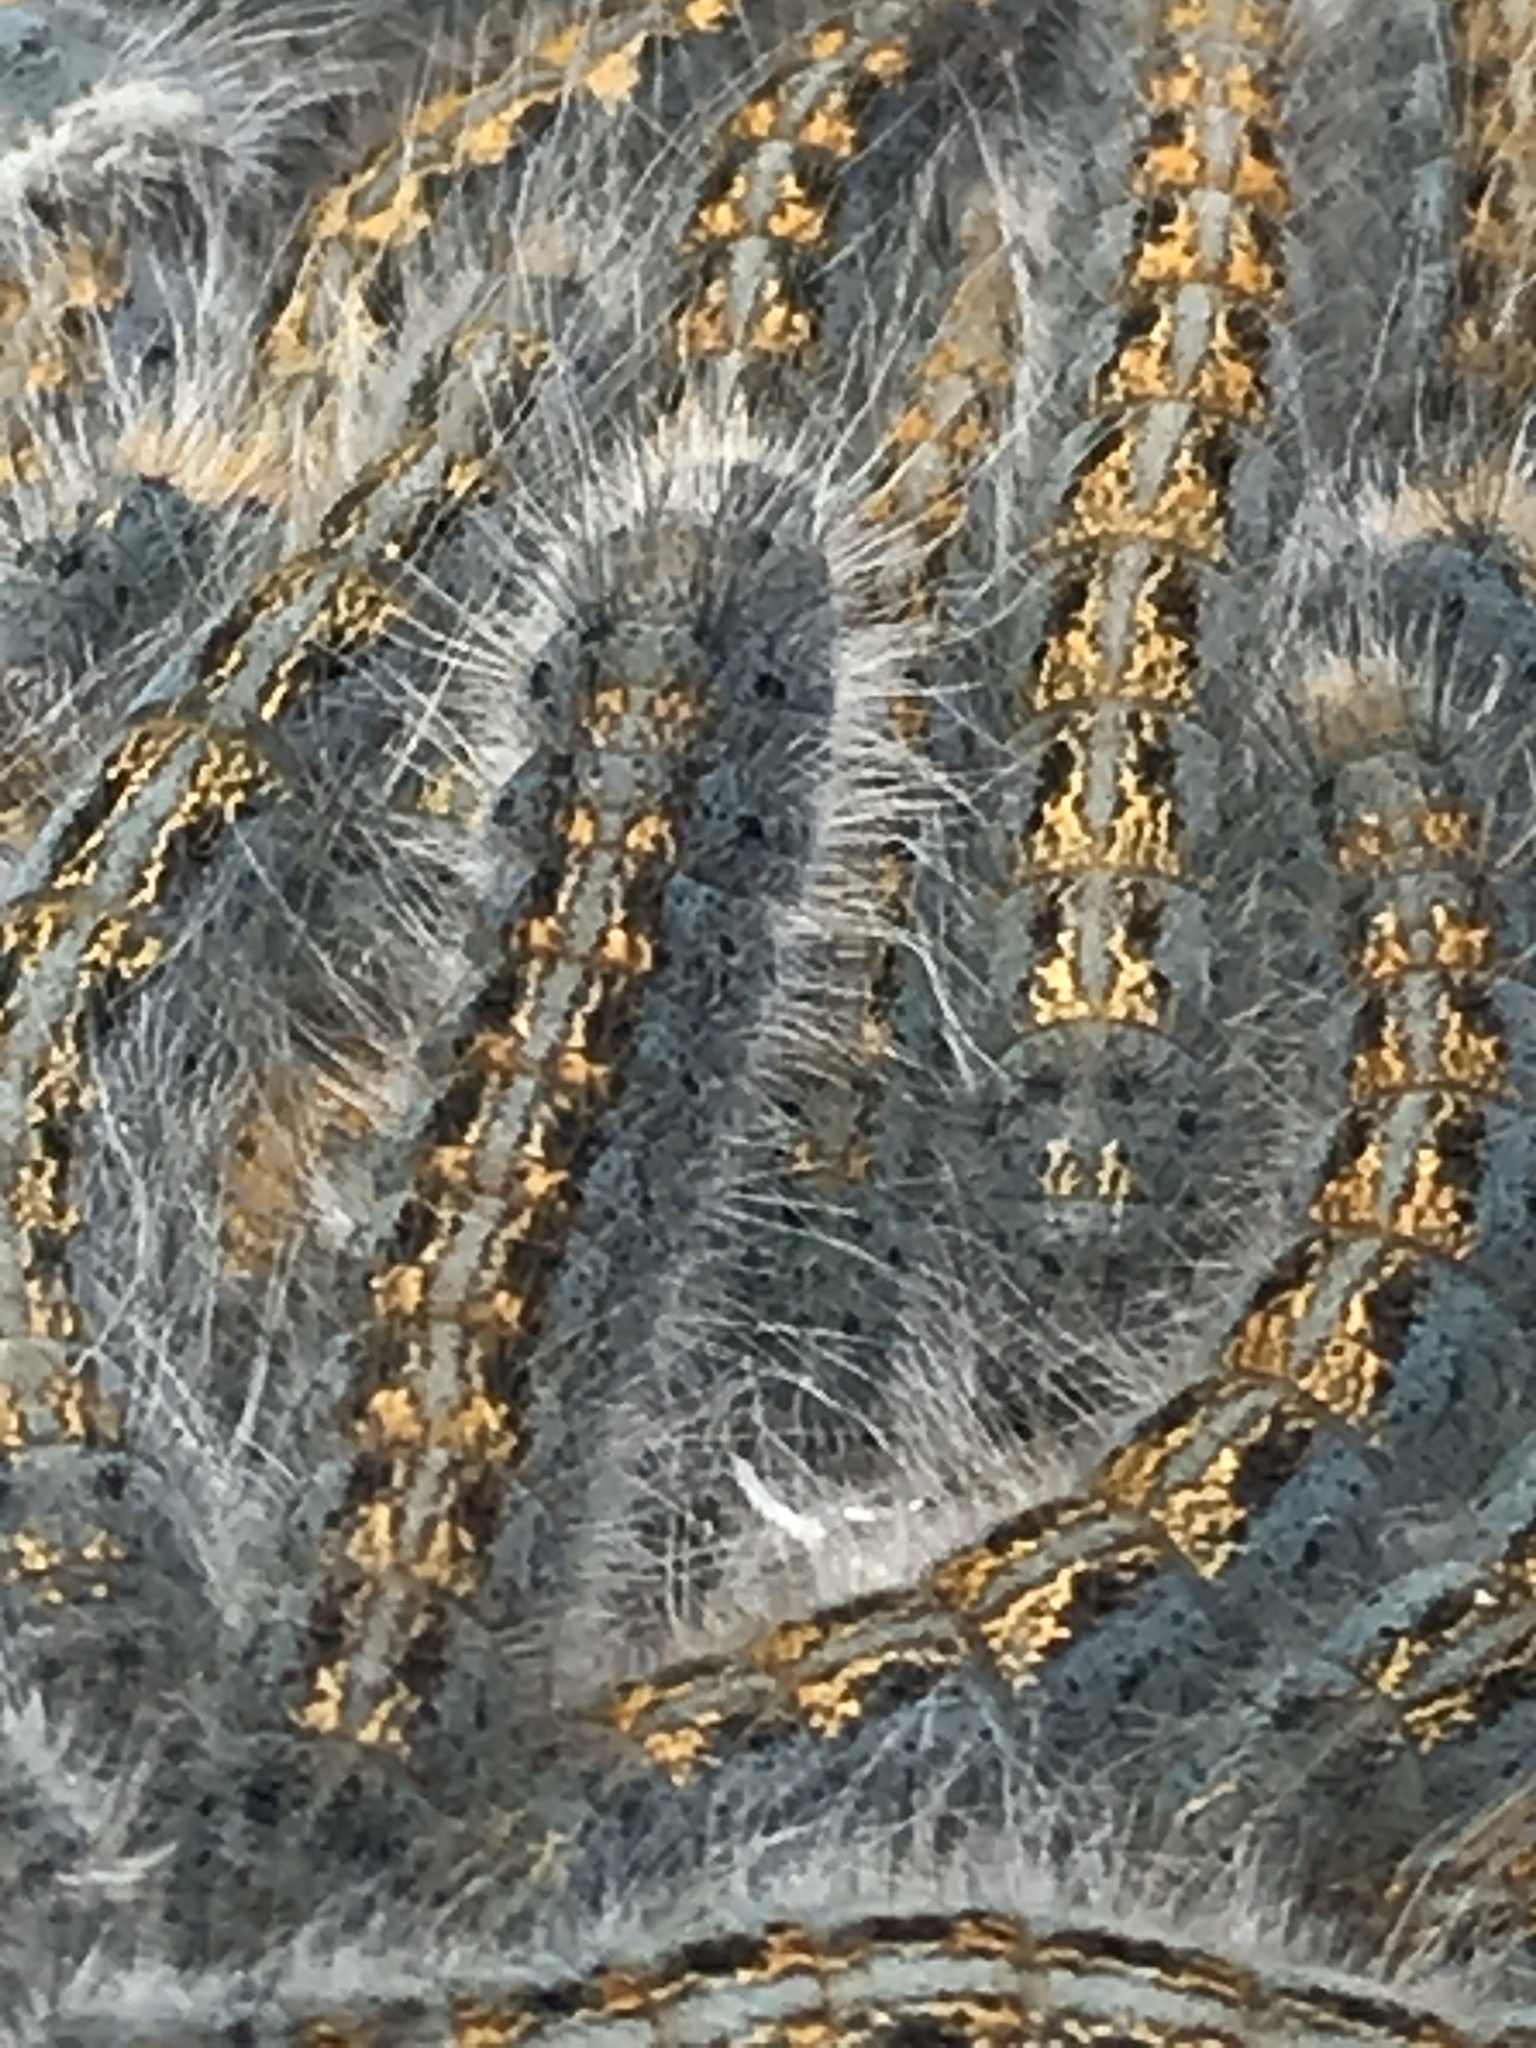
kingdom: Animalia
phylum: Arthropoda
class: Insecta
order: Lepidoptera
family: Lasiocampidae
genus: Malacosoma
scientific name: Malacosoma californica
